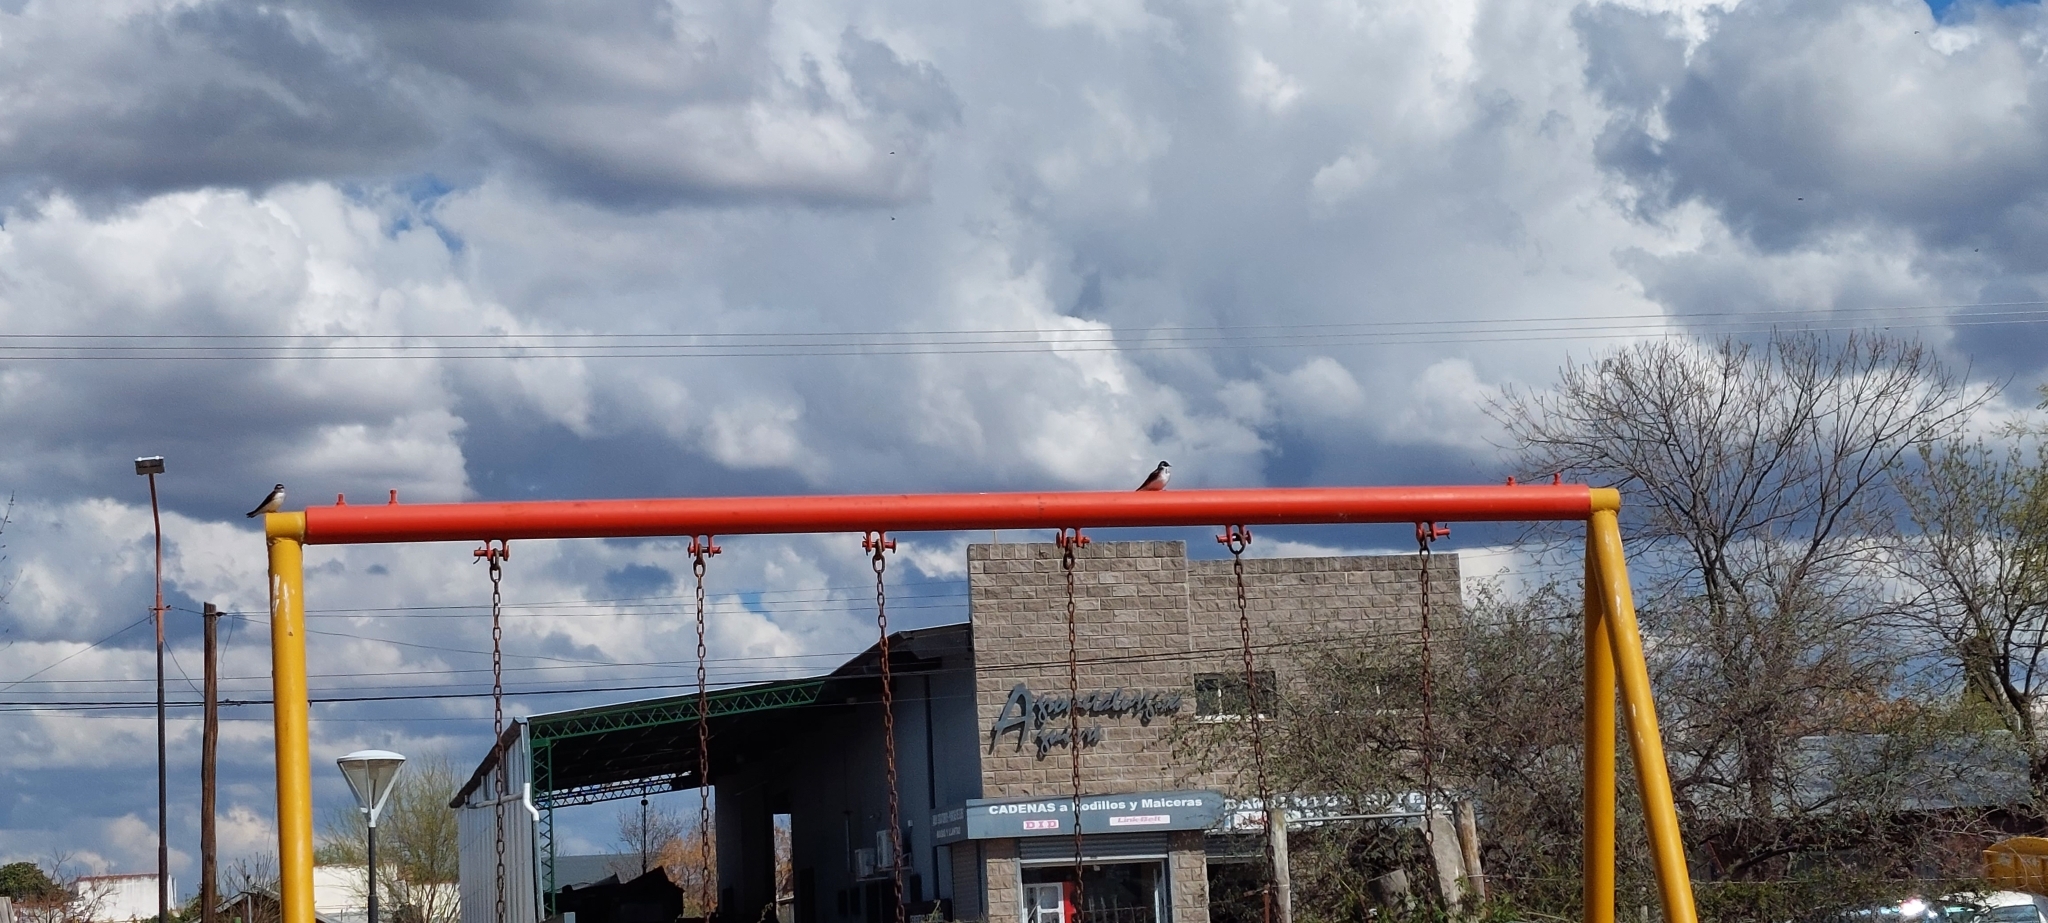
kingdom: Animalia
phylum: Chordata
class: Aves
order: Passeriformes
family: Hirundinidae
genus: Tachycineta
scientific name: Tachycineta leucorrhoa
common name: White-rumped swallow
